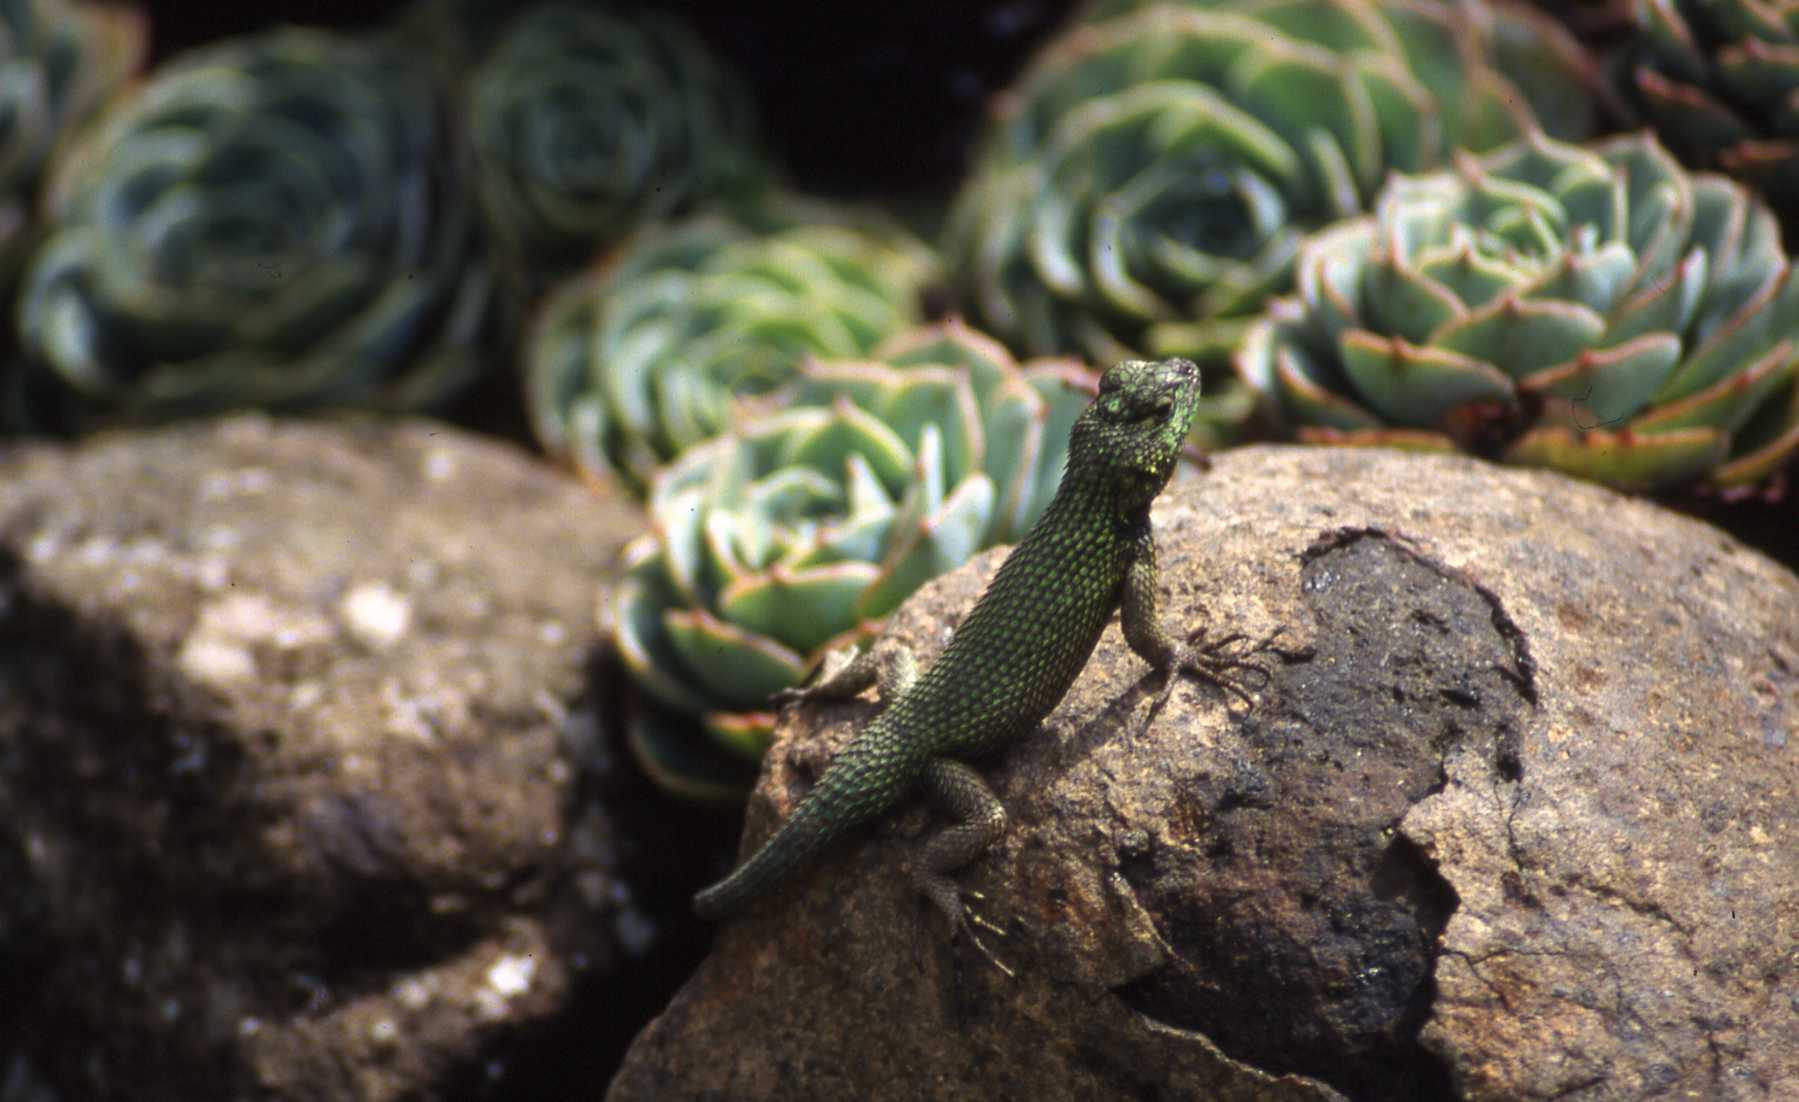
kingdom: Animalia
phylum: Chordata
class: Squamata
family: Phrynosomatidae
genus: Sceloporus
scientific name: Sceloporus malachiticus
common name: Green spiny lizard
